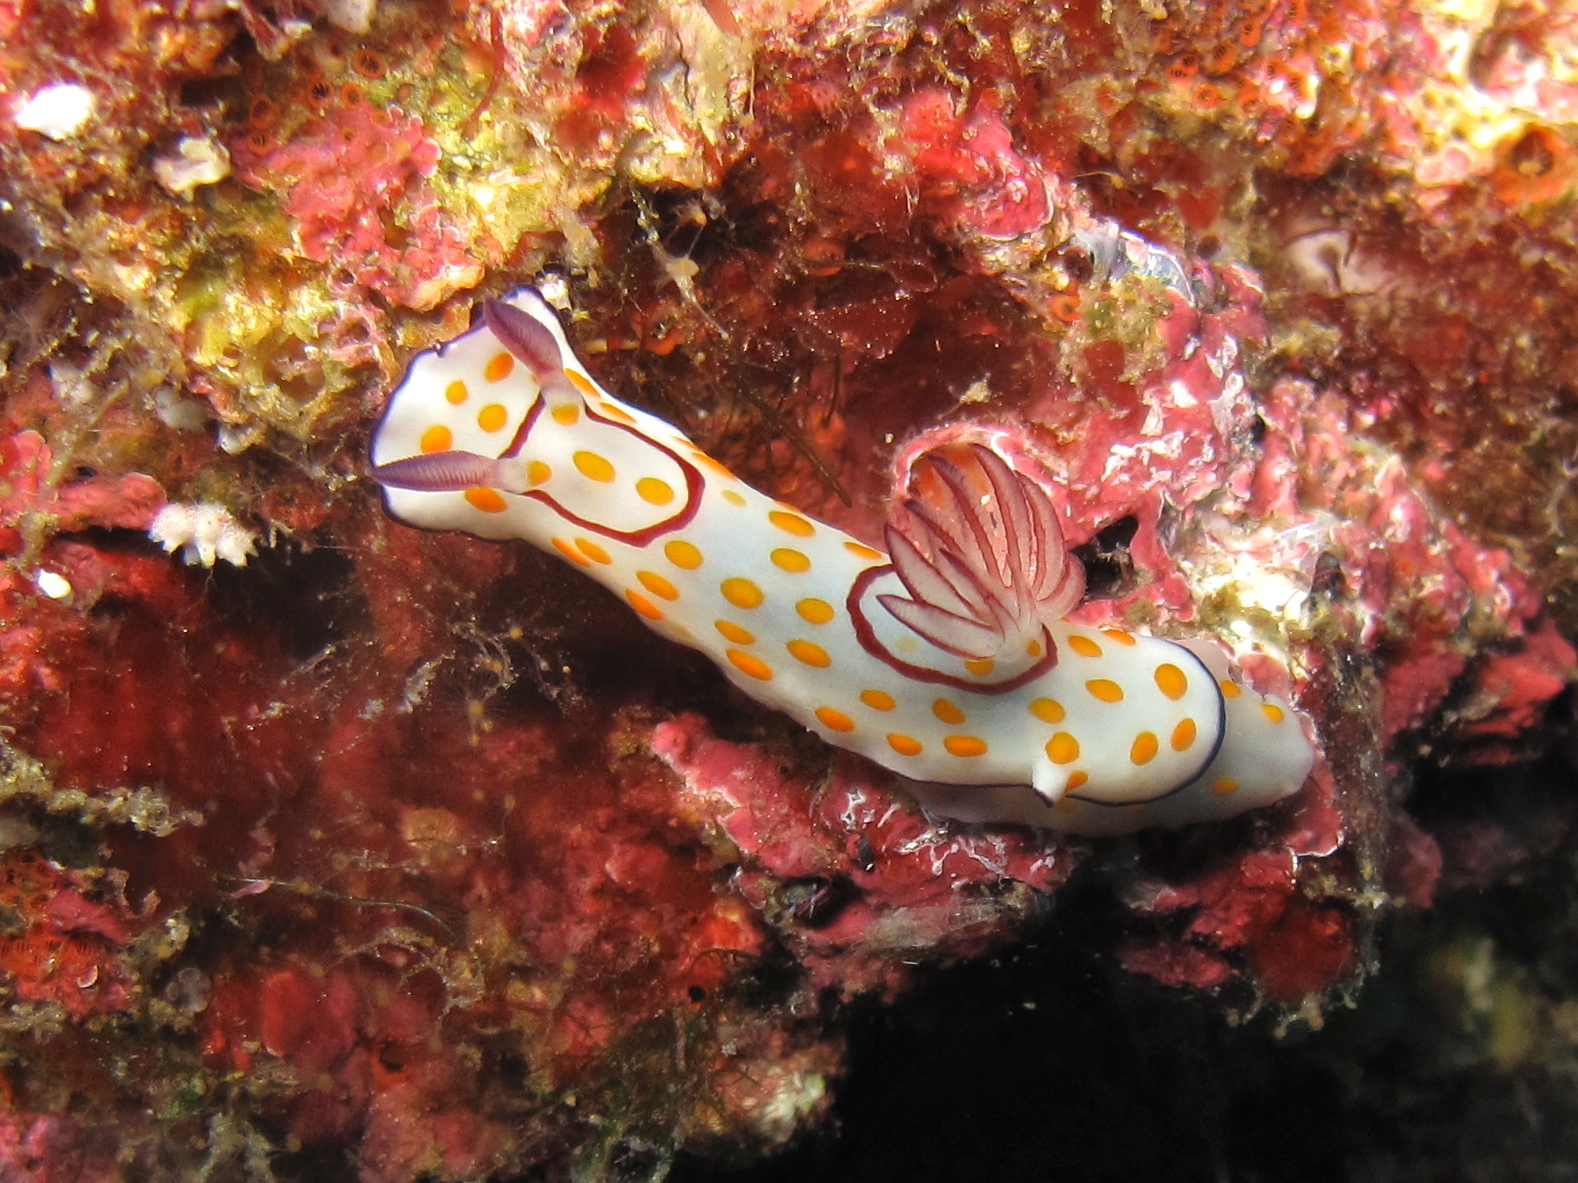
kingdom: Animalia
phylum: Mollusca
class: Gastropoda
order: Nudibranchia
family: Chromodorididae
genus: Goniobranchus
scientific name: Goniobranchus annulatus
